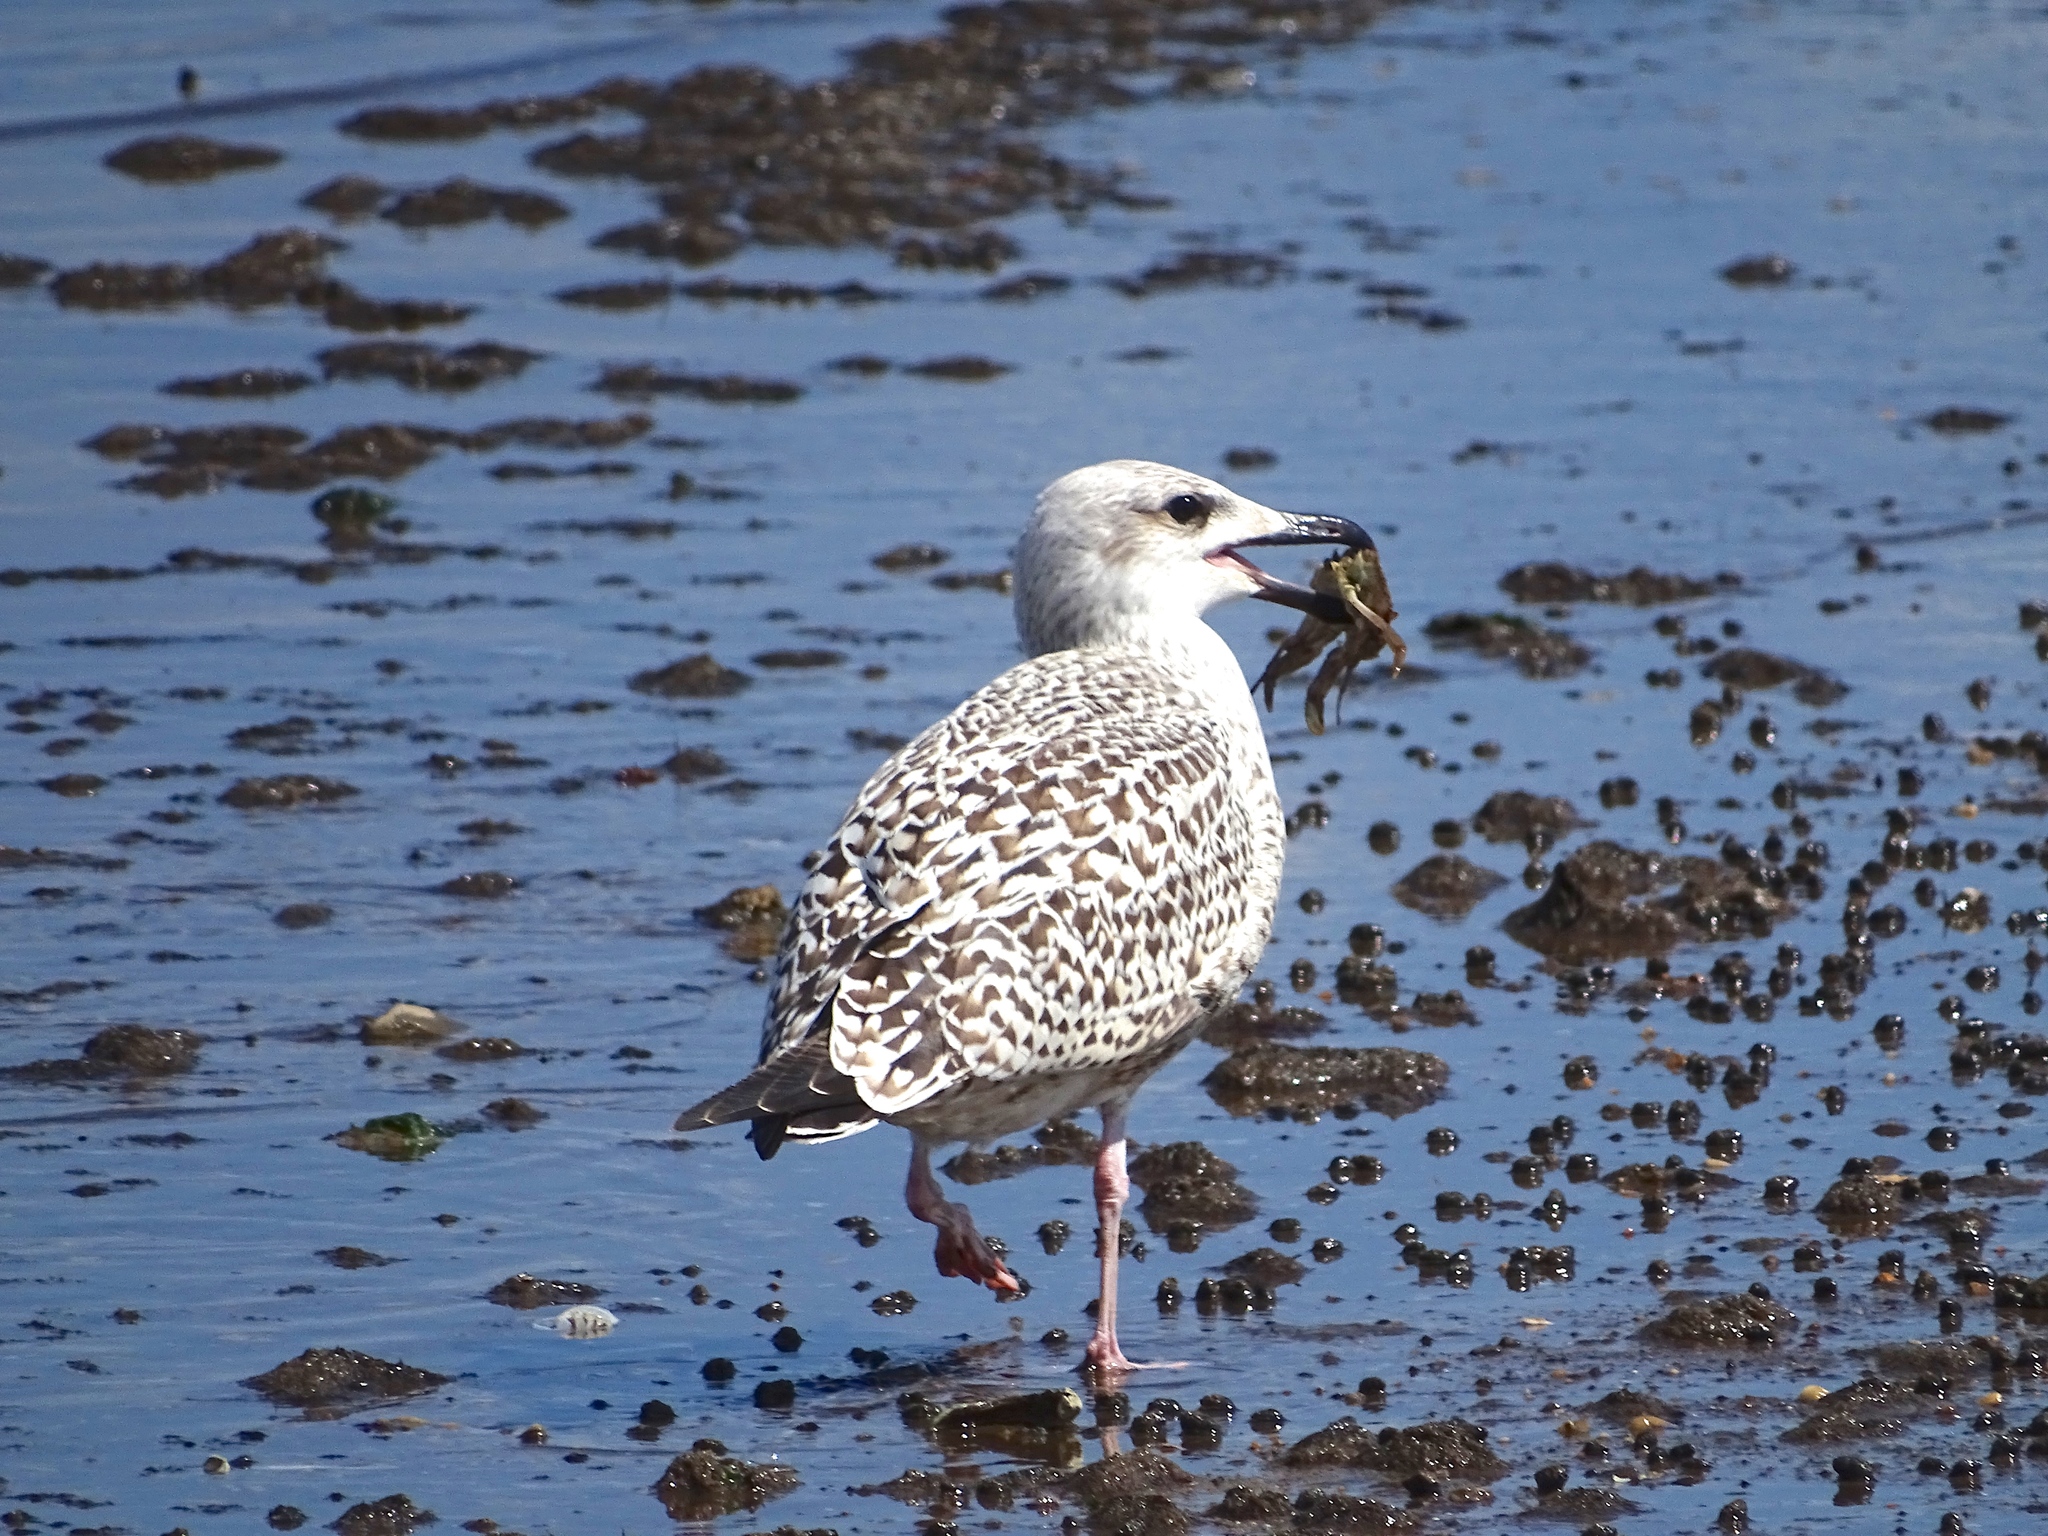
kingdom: Animalia
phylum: Chordata
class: Aves
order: Charadriiformes
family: Laridae
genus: Larus
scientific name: Larus marinus
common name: Great black-backed gull
